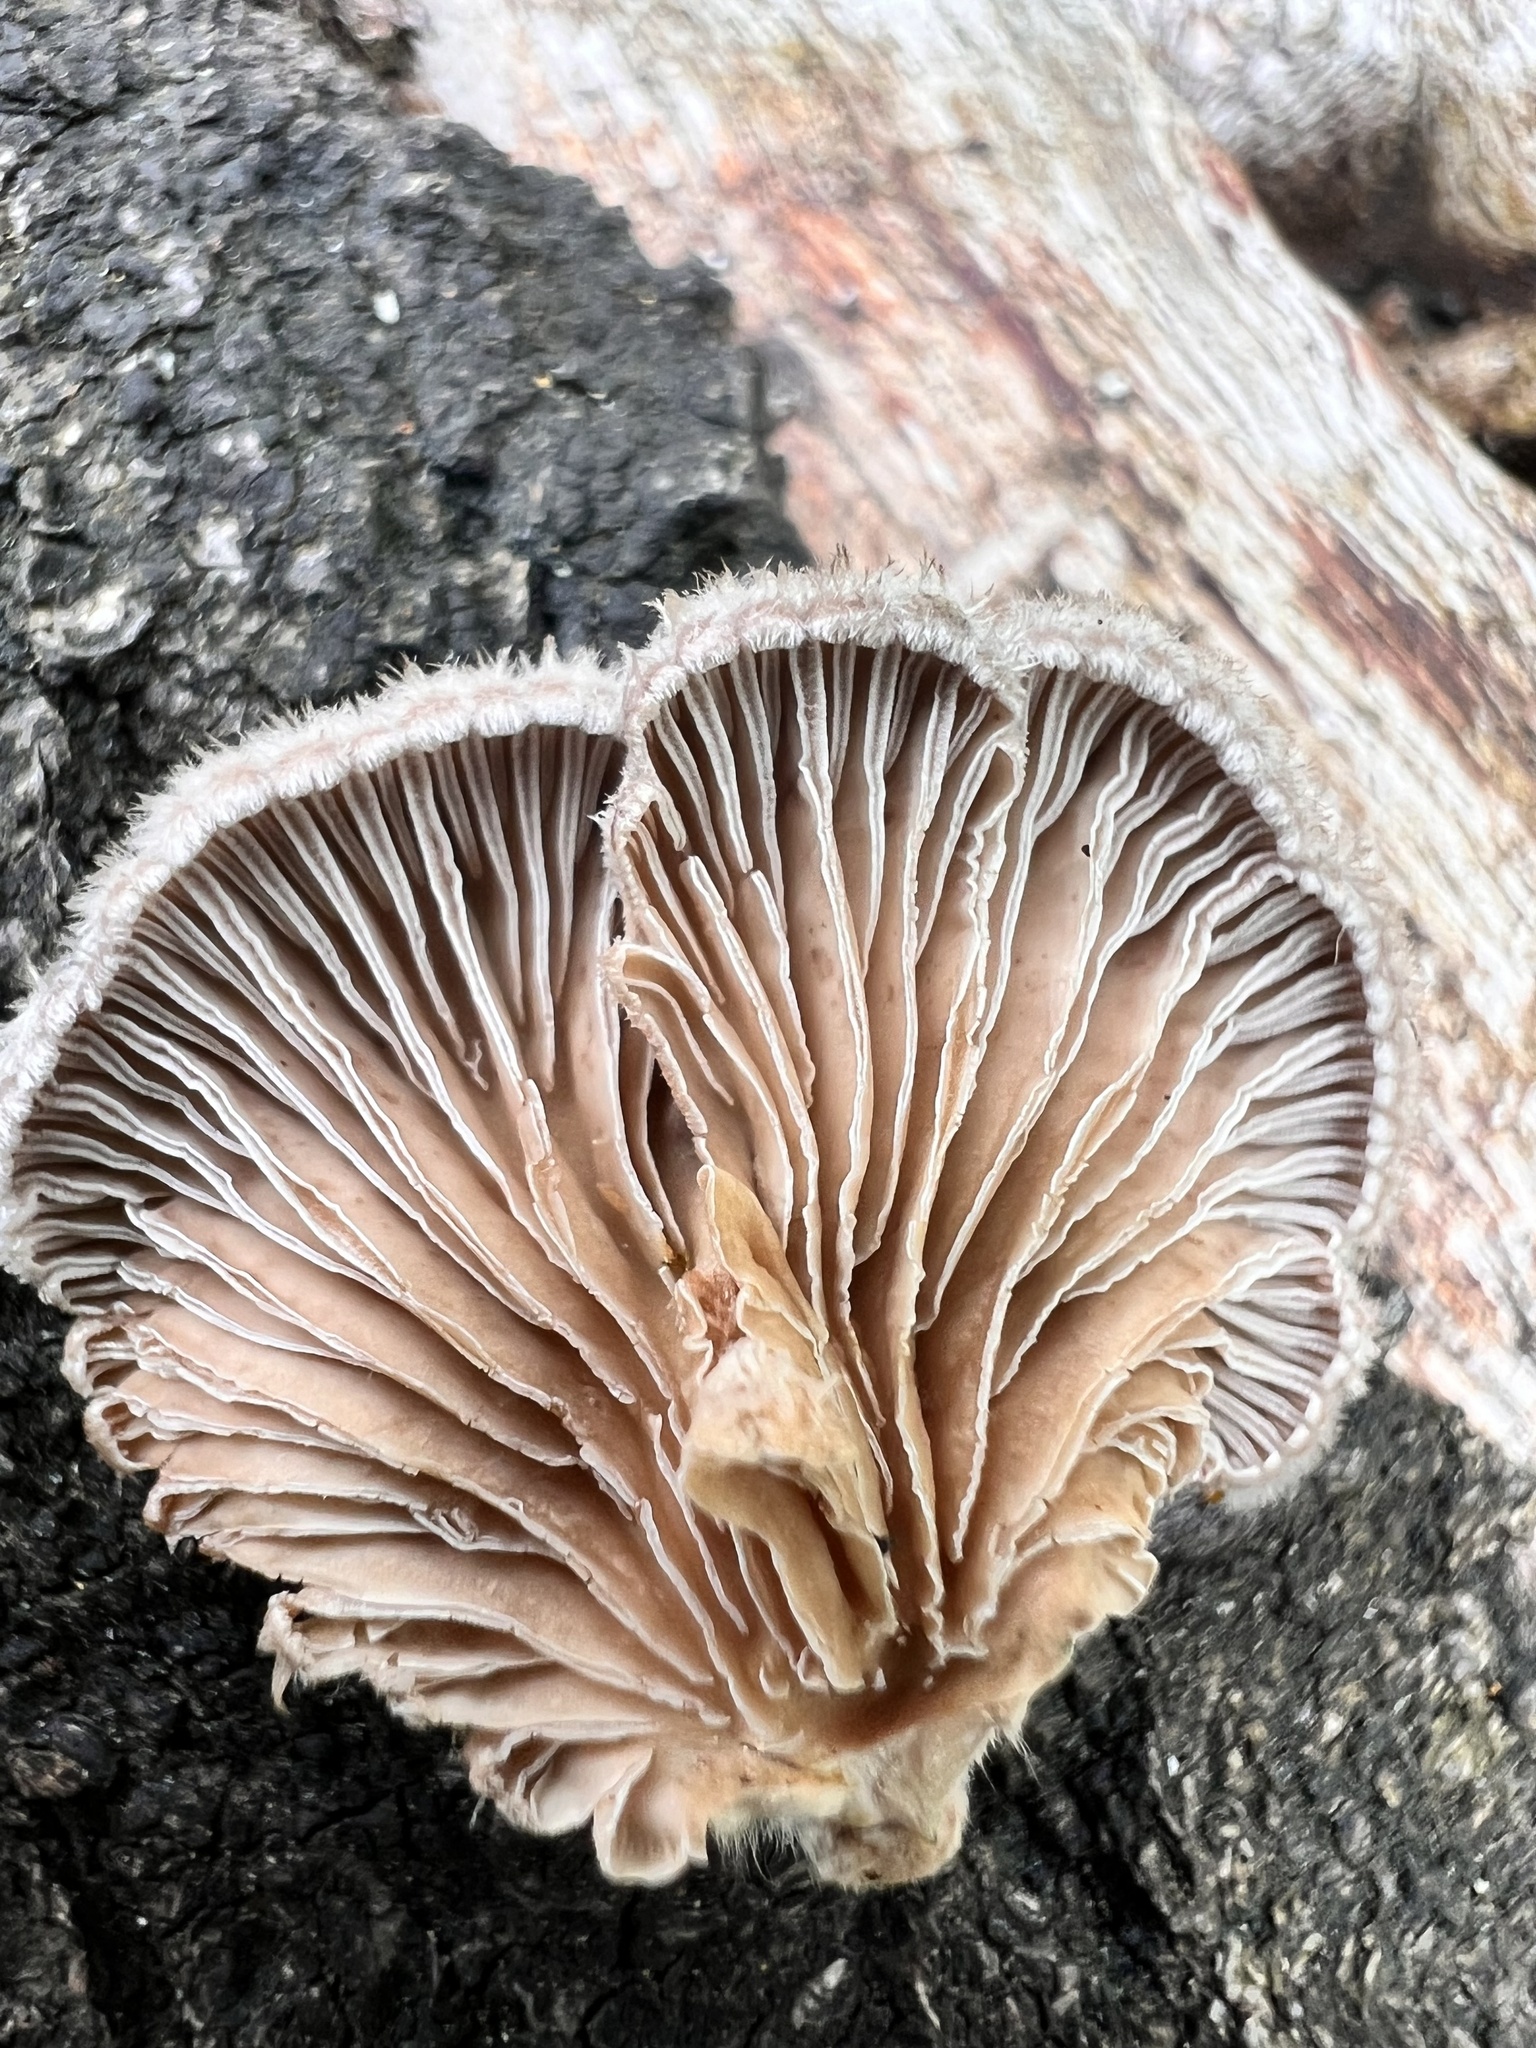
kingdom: Fungi
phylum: Basidiomycota
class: Agaricomycetes
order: Agaricales
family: Schizophyllaceae
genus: Schizophyllum
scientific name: Schizophyllum commune
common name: Common porecrust
